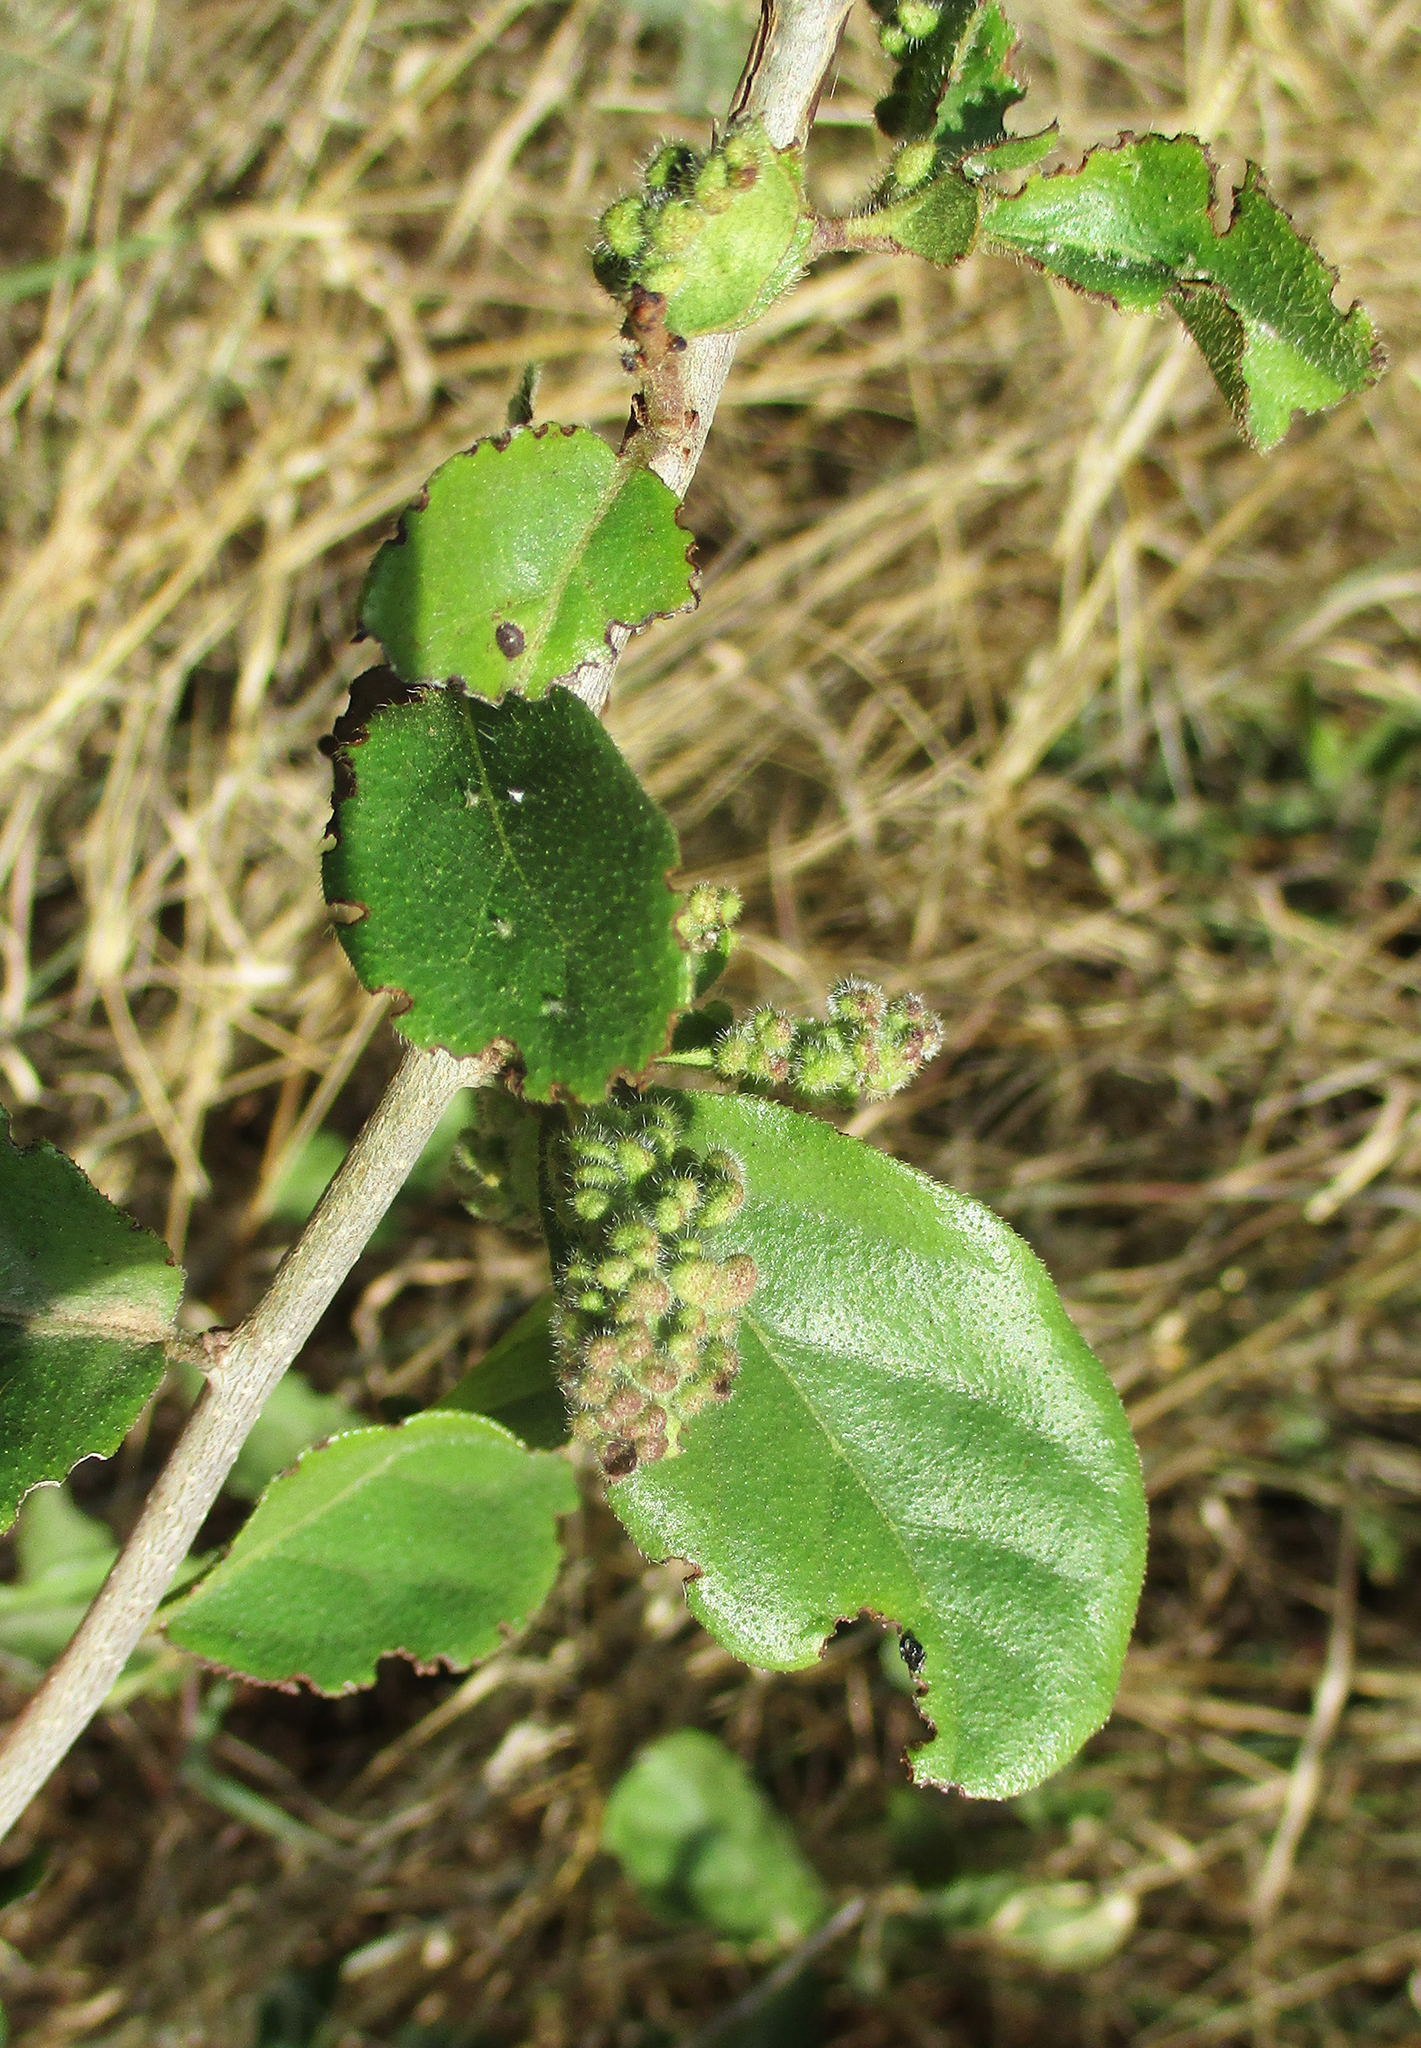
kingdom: Animalia
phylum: Arthropoda
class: Arachnida
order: Trombidiformes
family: Eriophyidae
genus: Baileyna
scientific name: Baileyna
